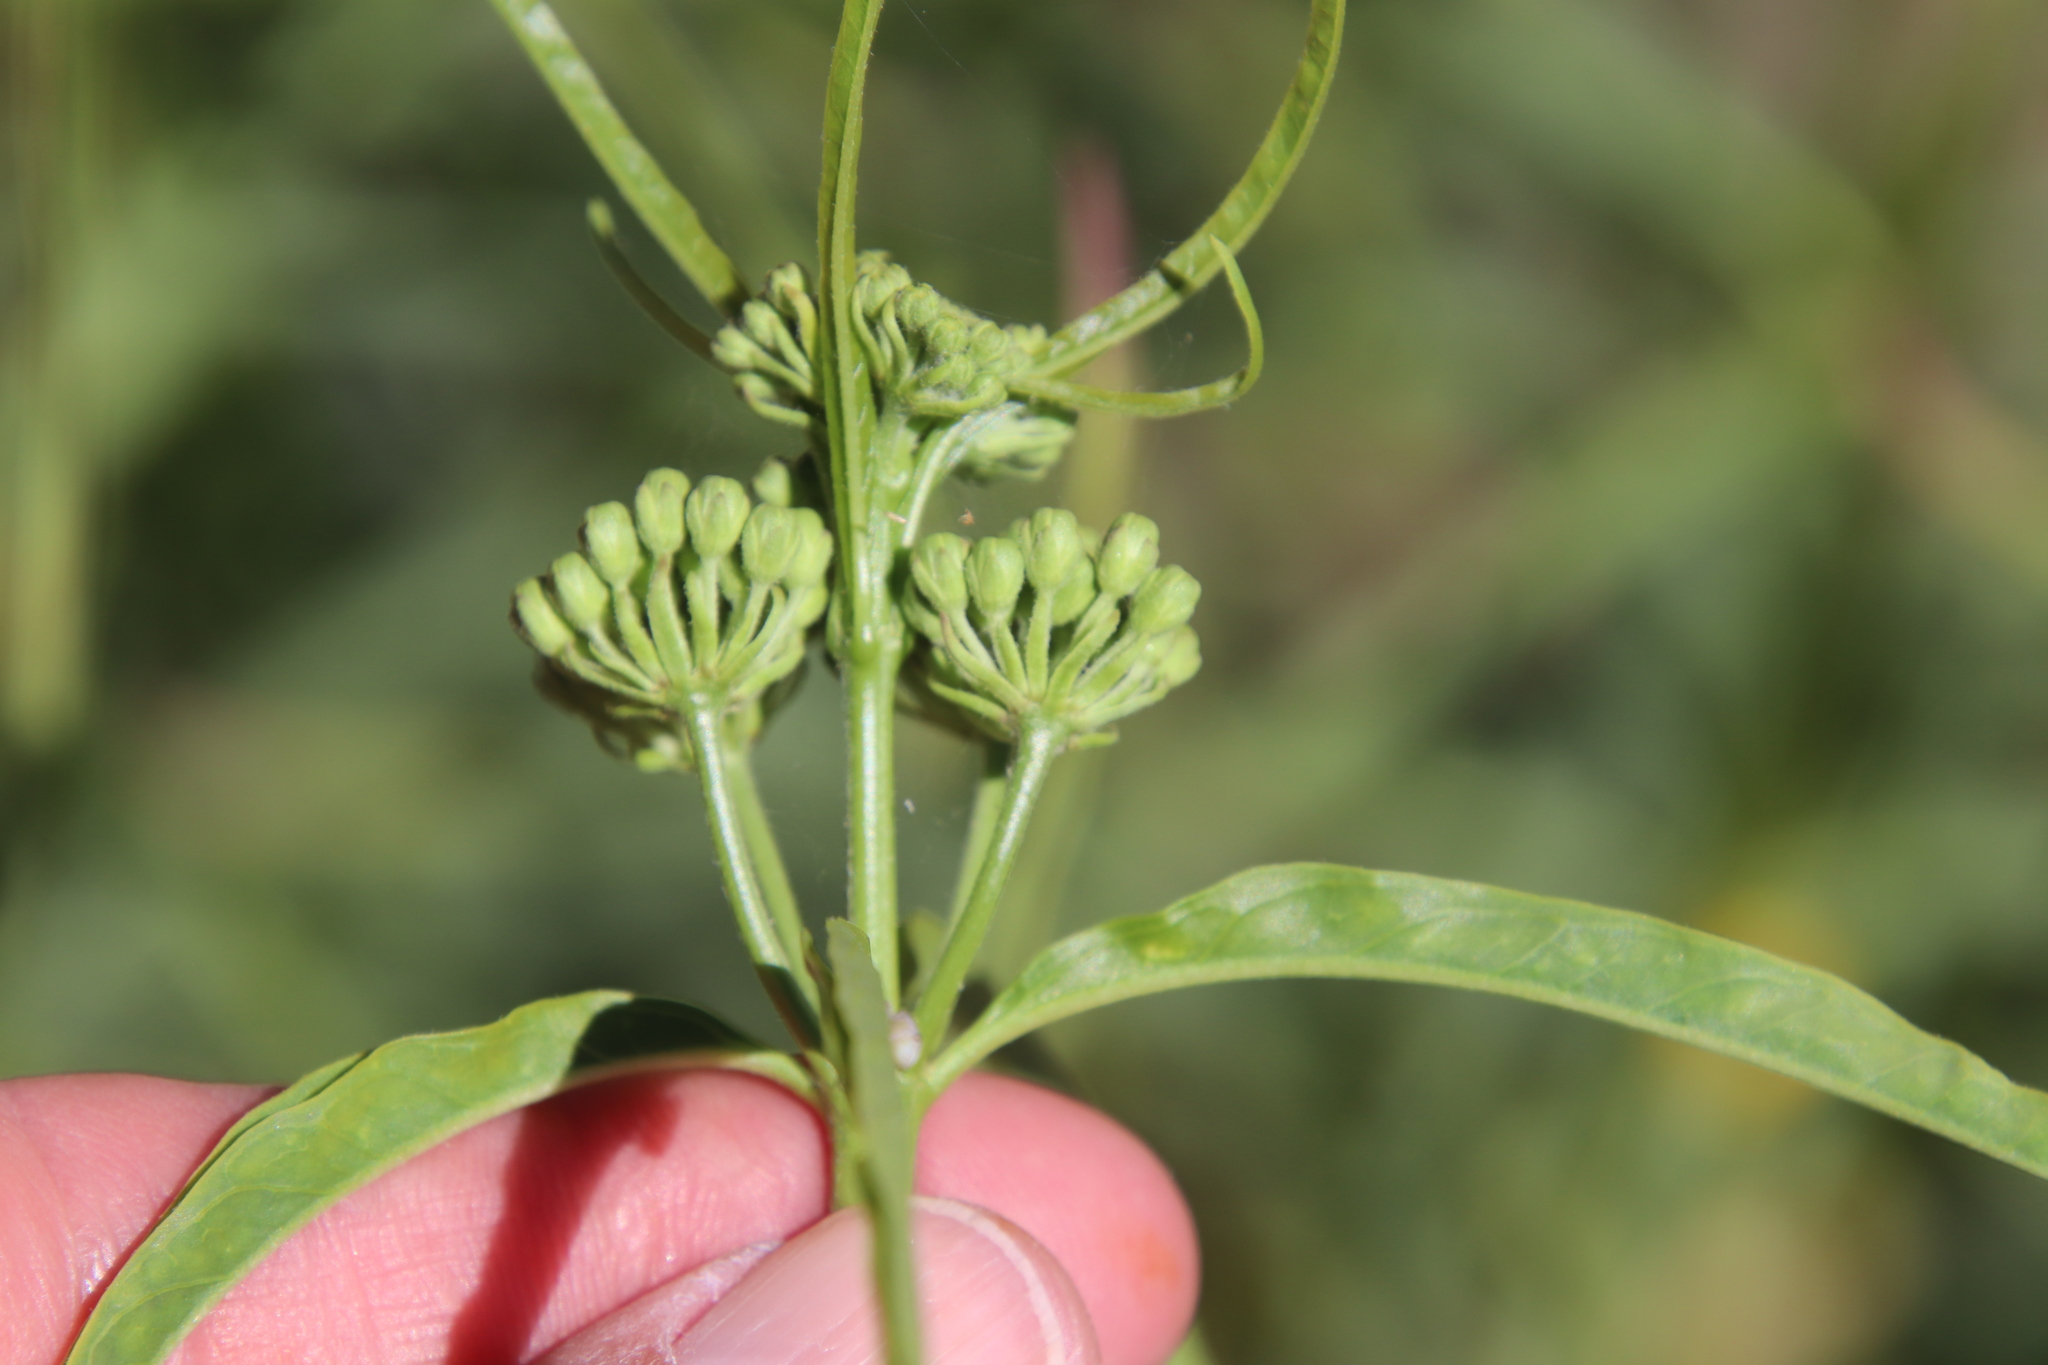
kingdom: Plantae
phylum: Tracheophyta
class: Magnoliopsida
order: Gentianales
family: Apocynaceae
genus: Asclepias
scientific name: Asclepias fascicularis
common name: Mexican milkweed
